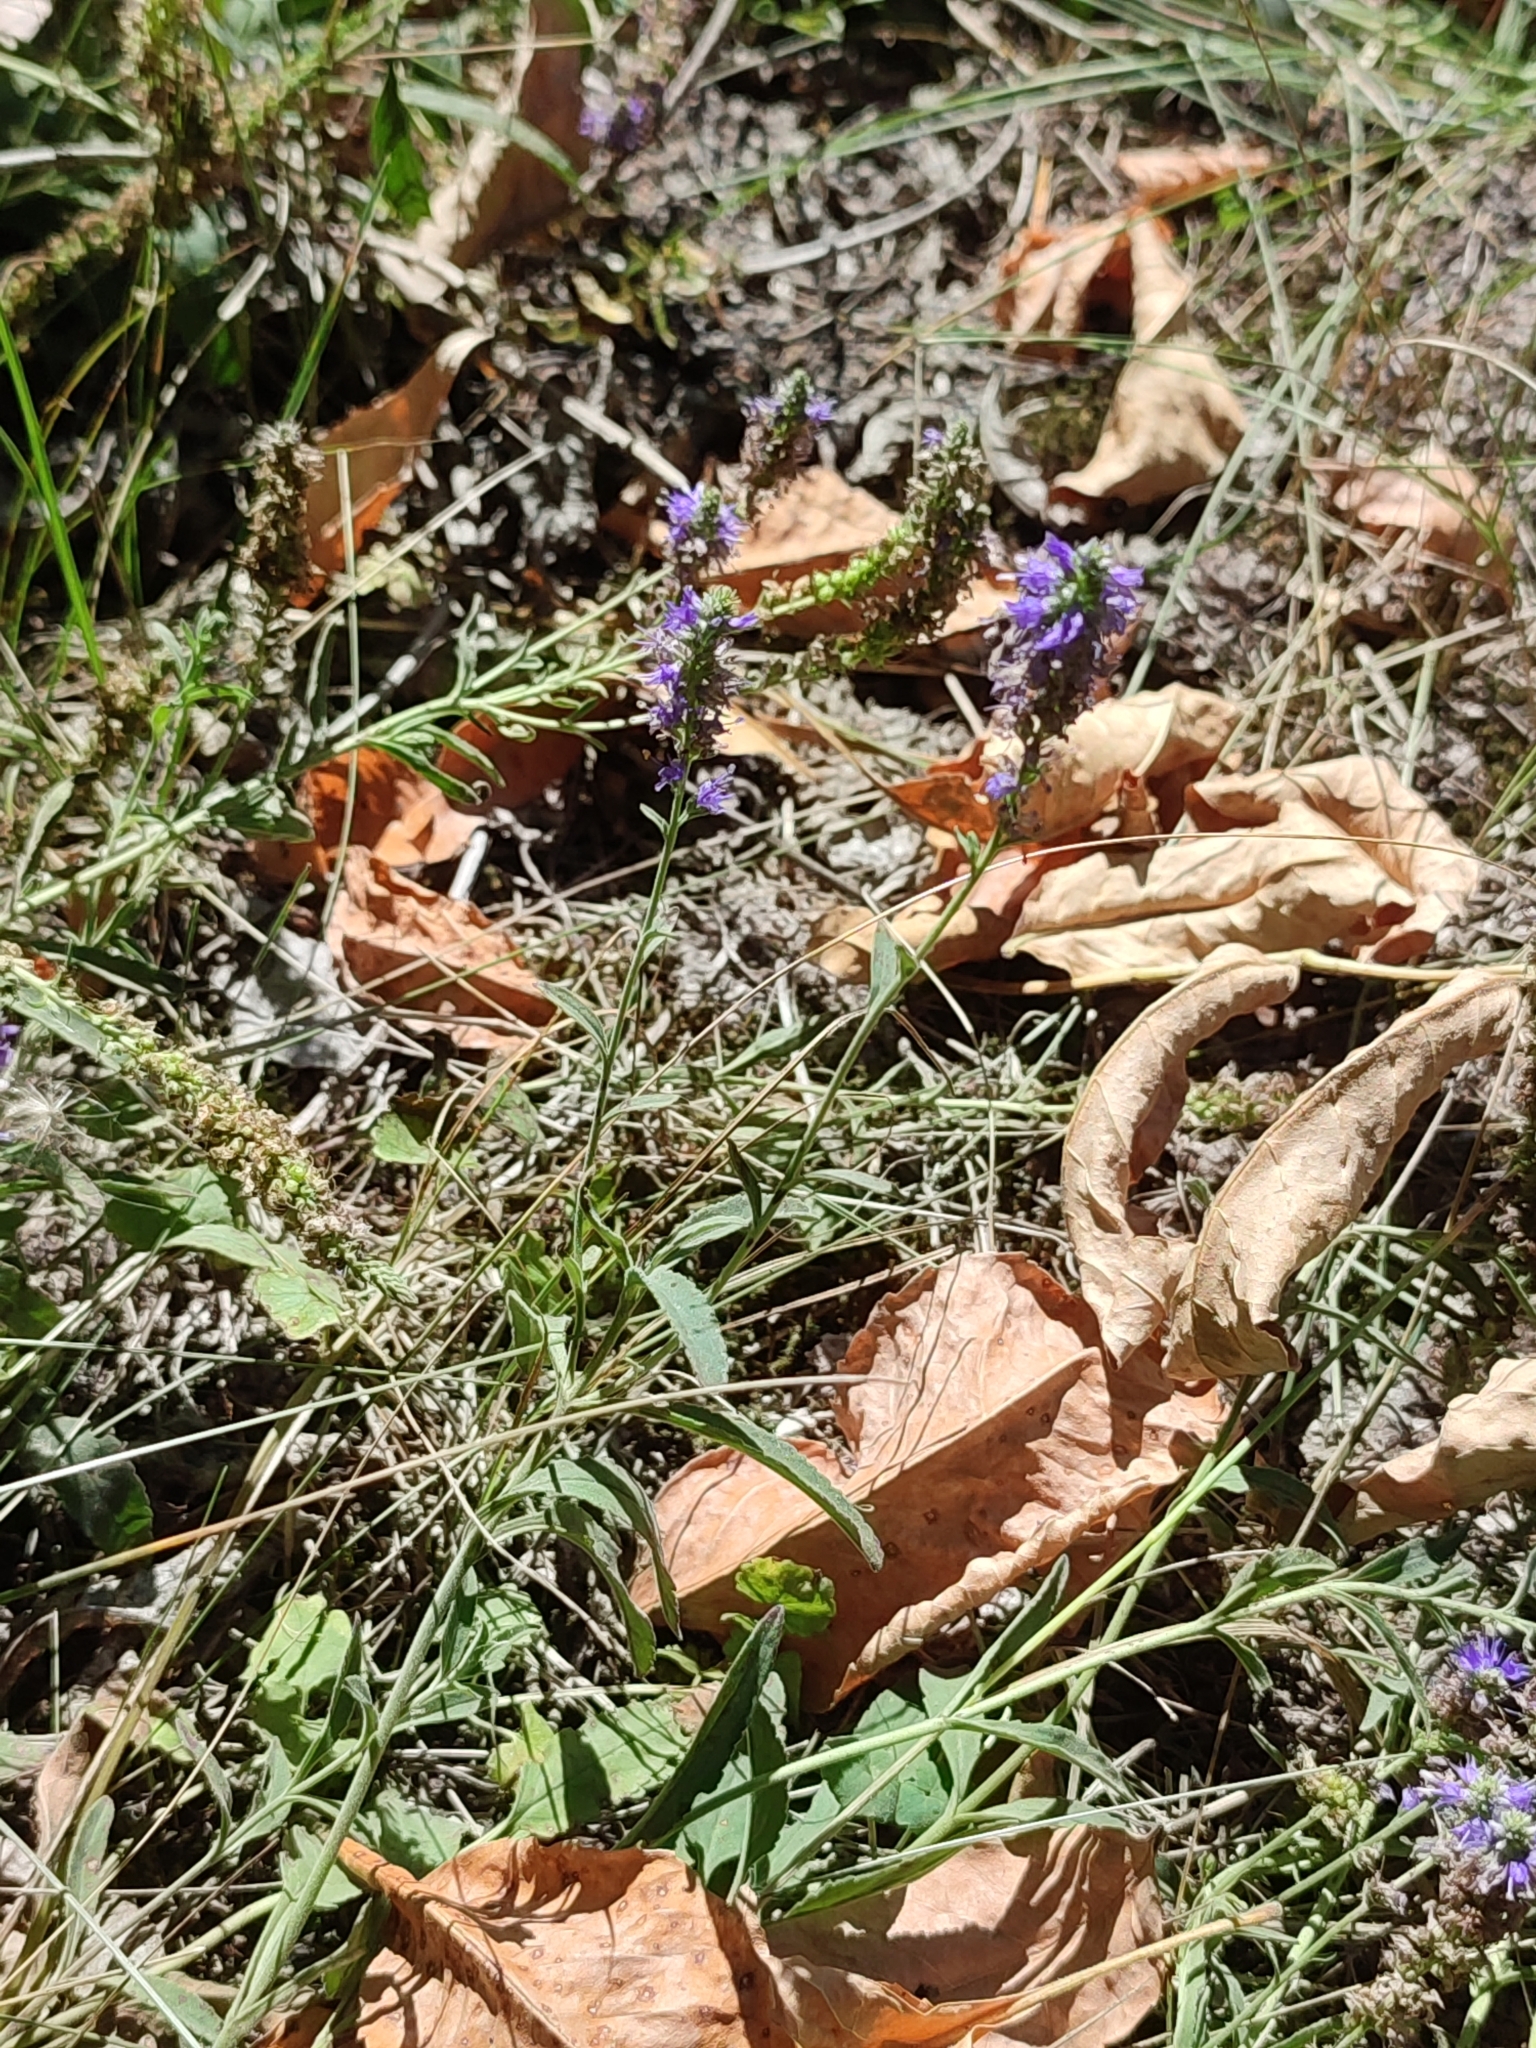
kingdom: Plantae
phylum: Tracheophyta
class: Magnoliopsida
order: Lamiales
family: Plantaginaceae
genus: Veronica
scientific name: Veronica spicata
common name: Spiked speedwell
